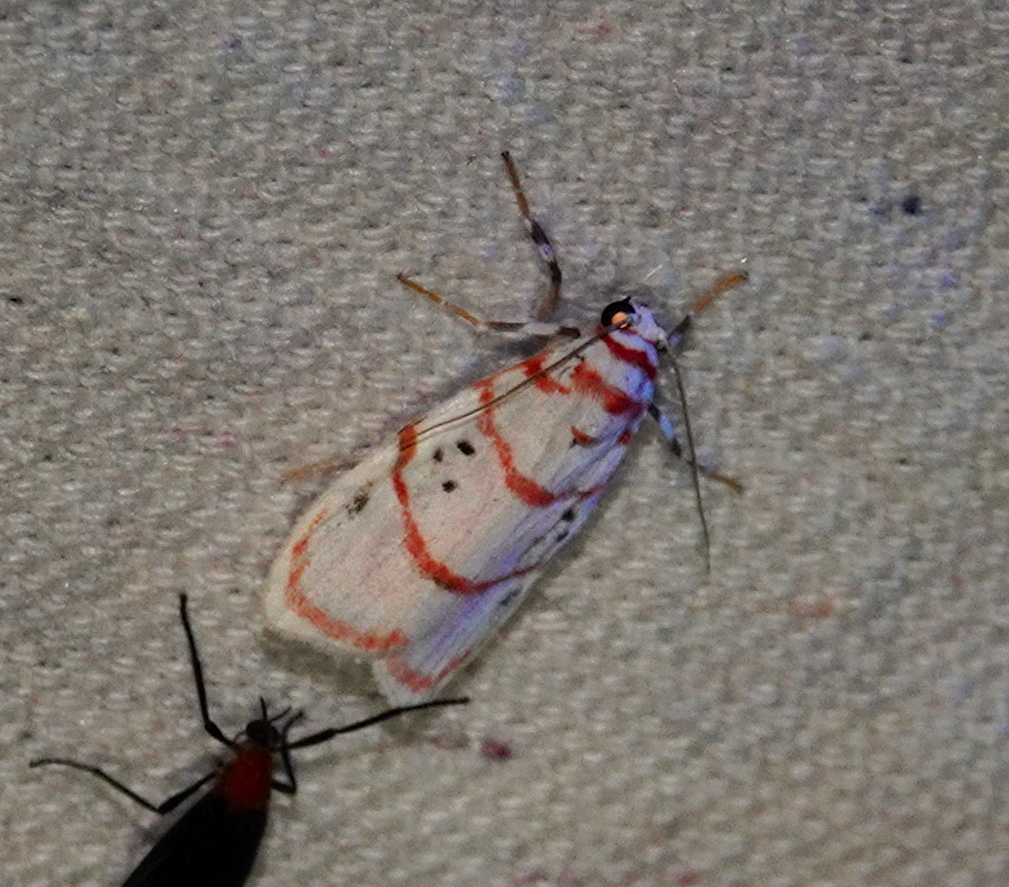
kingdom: Animalia
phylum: Arthropoda
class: Insecta
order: Lepidoptera
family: Erebidae
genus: Cyana
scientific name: Cyana peregrina
